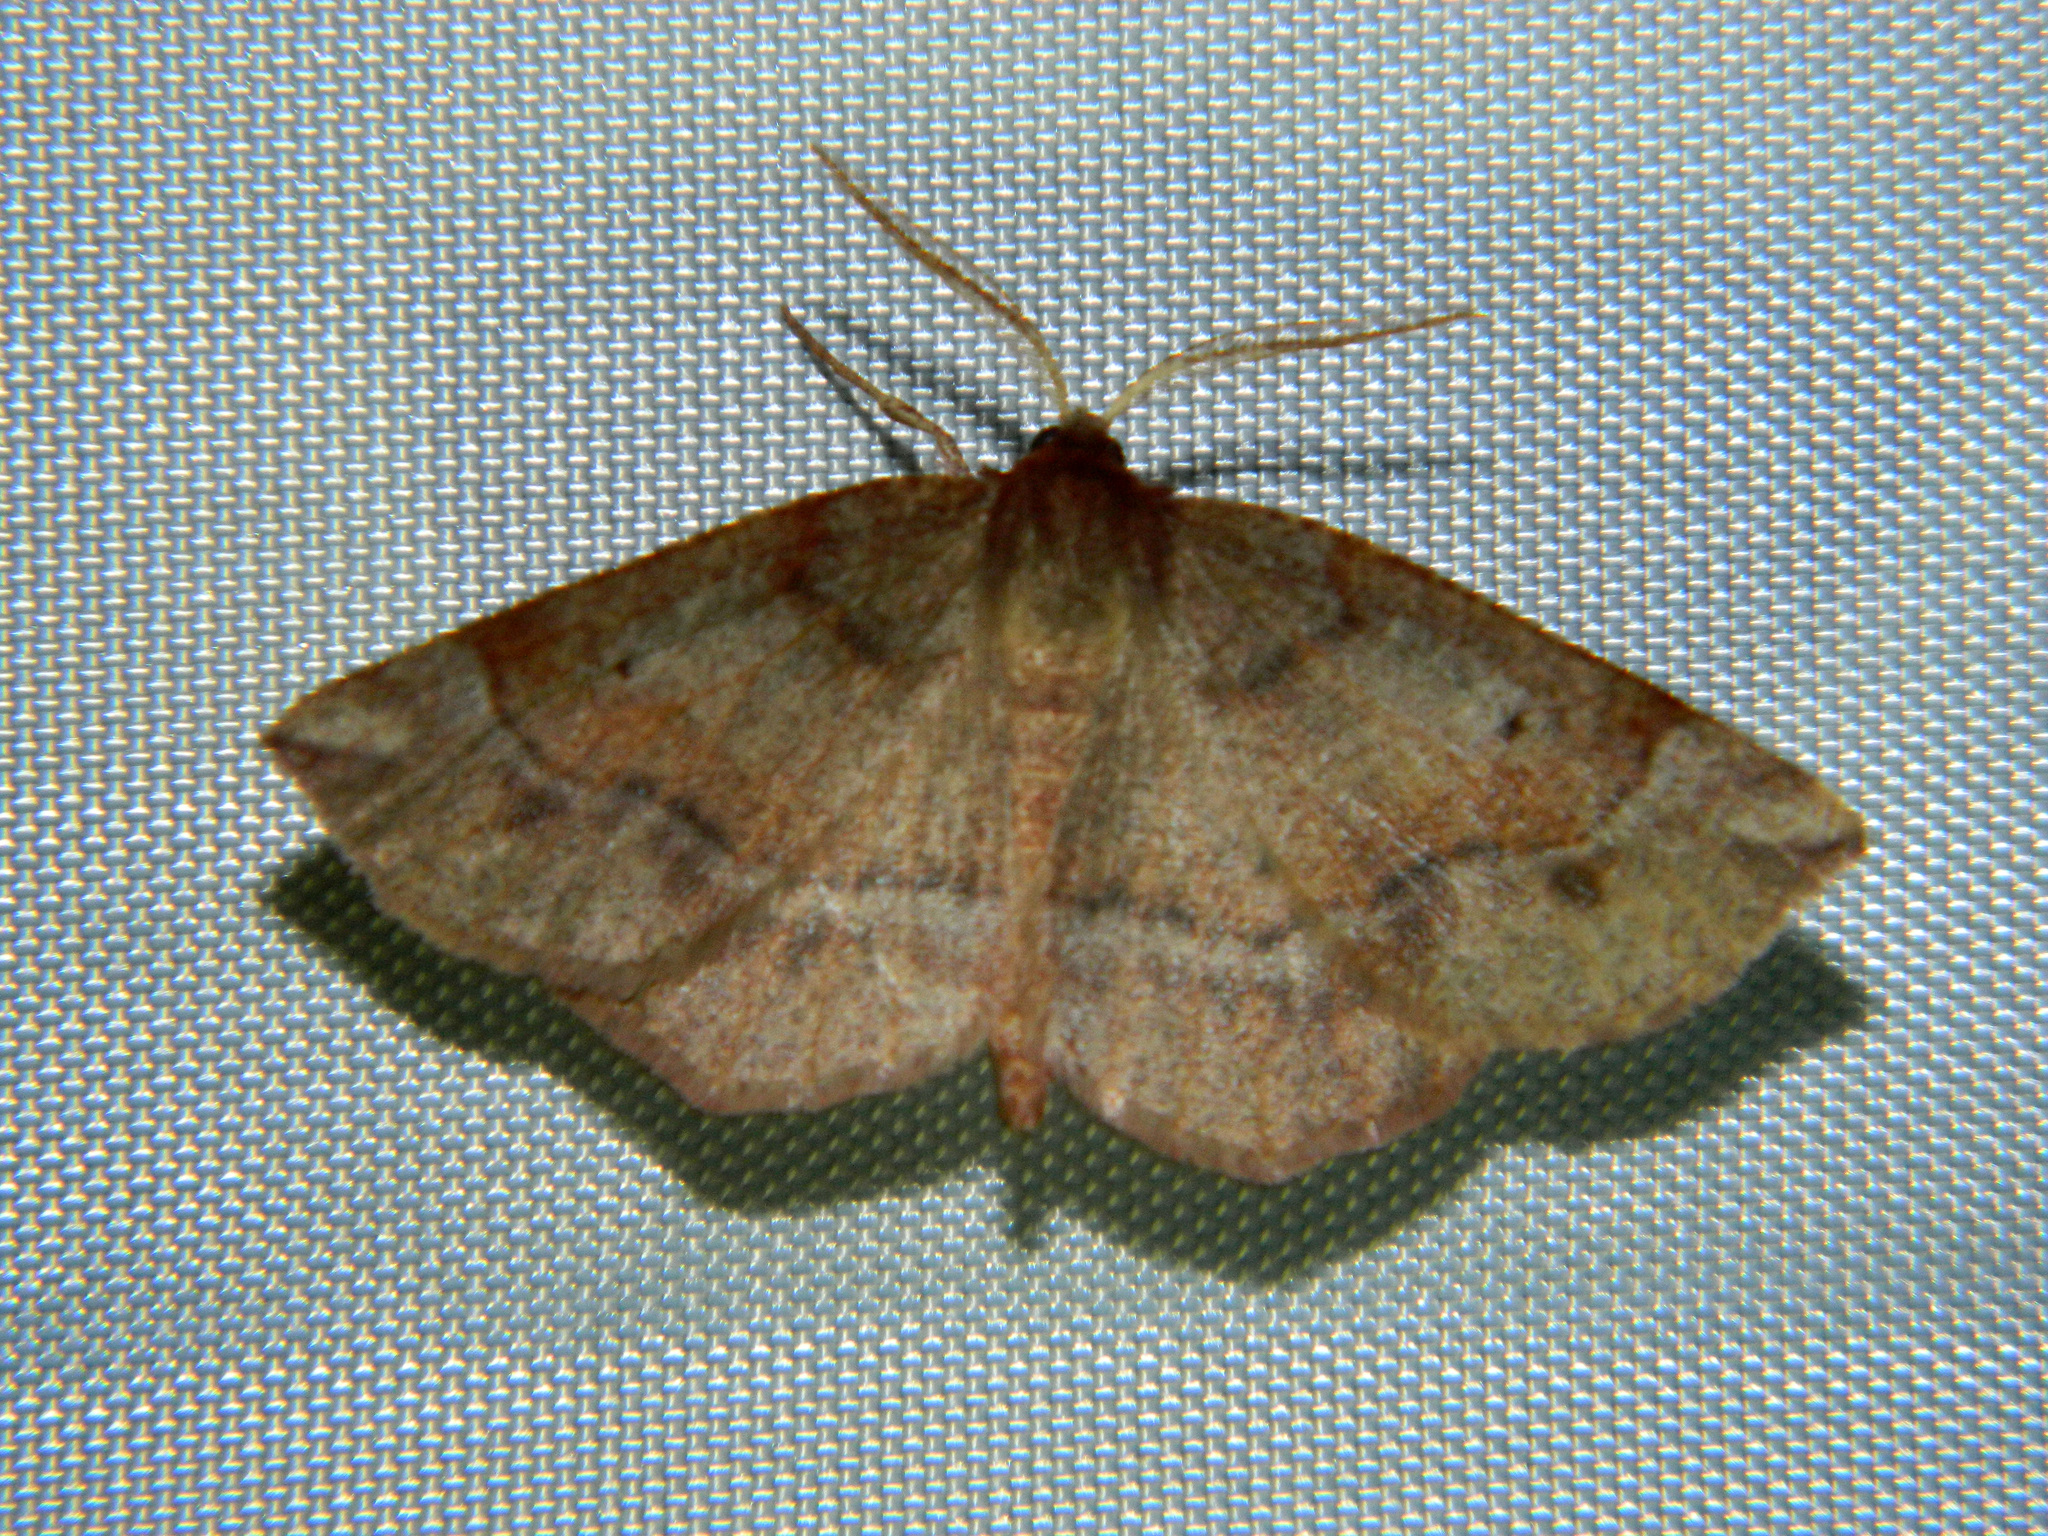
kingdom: Animalia
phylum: Arthropoda
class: Insecta
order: Lepidoptera
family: Geometridae
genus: Metarranthis
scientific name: Metarranthis duaria
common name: Ruddy metarranthis moth
